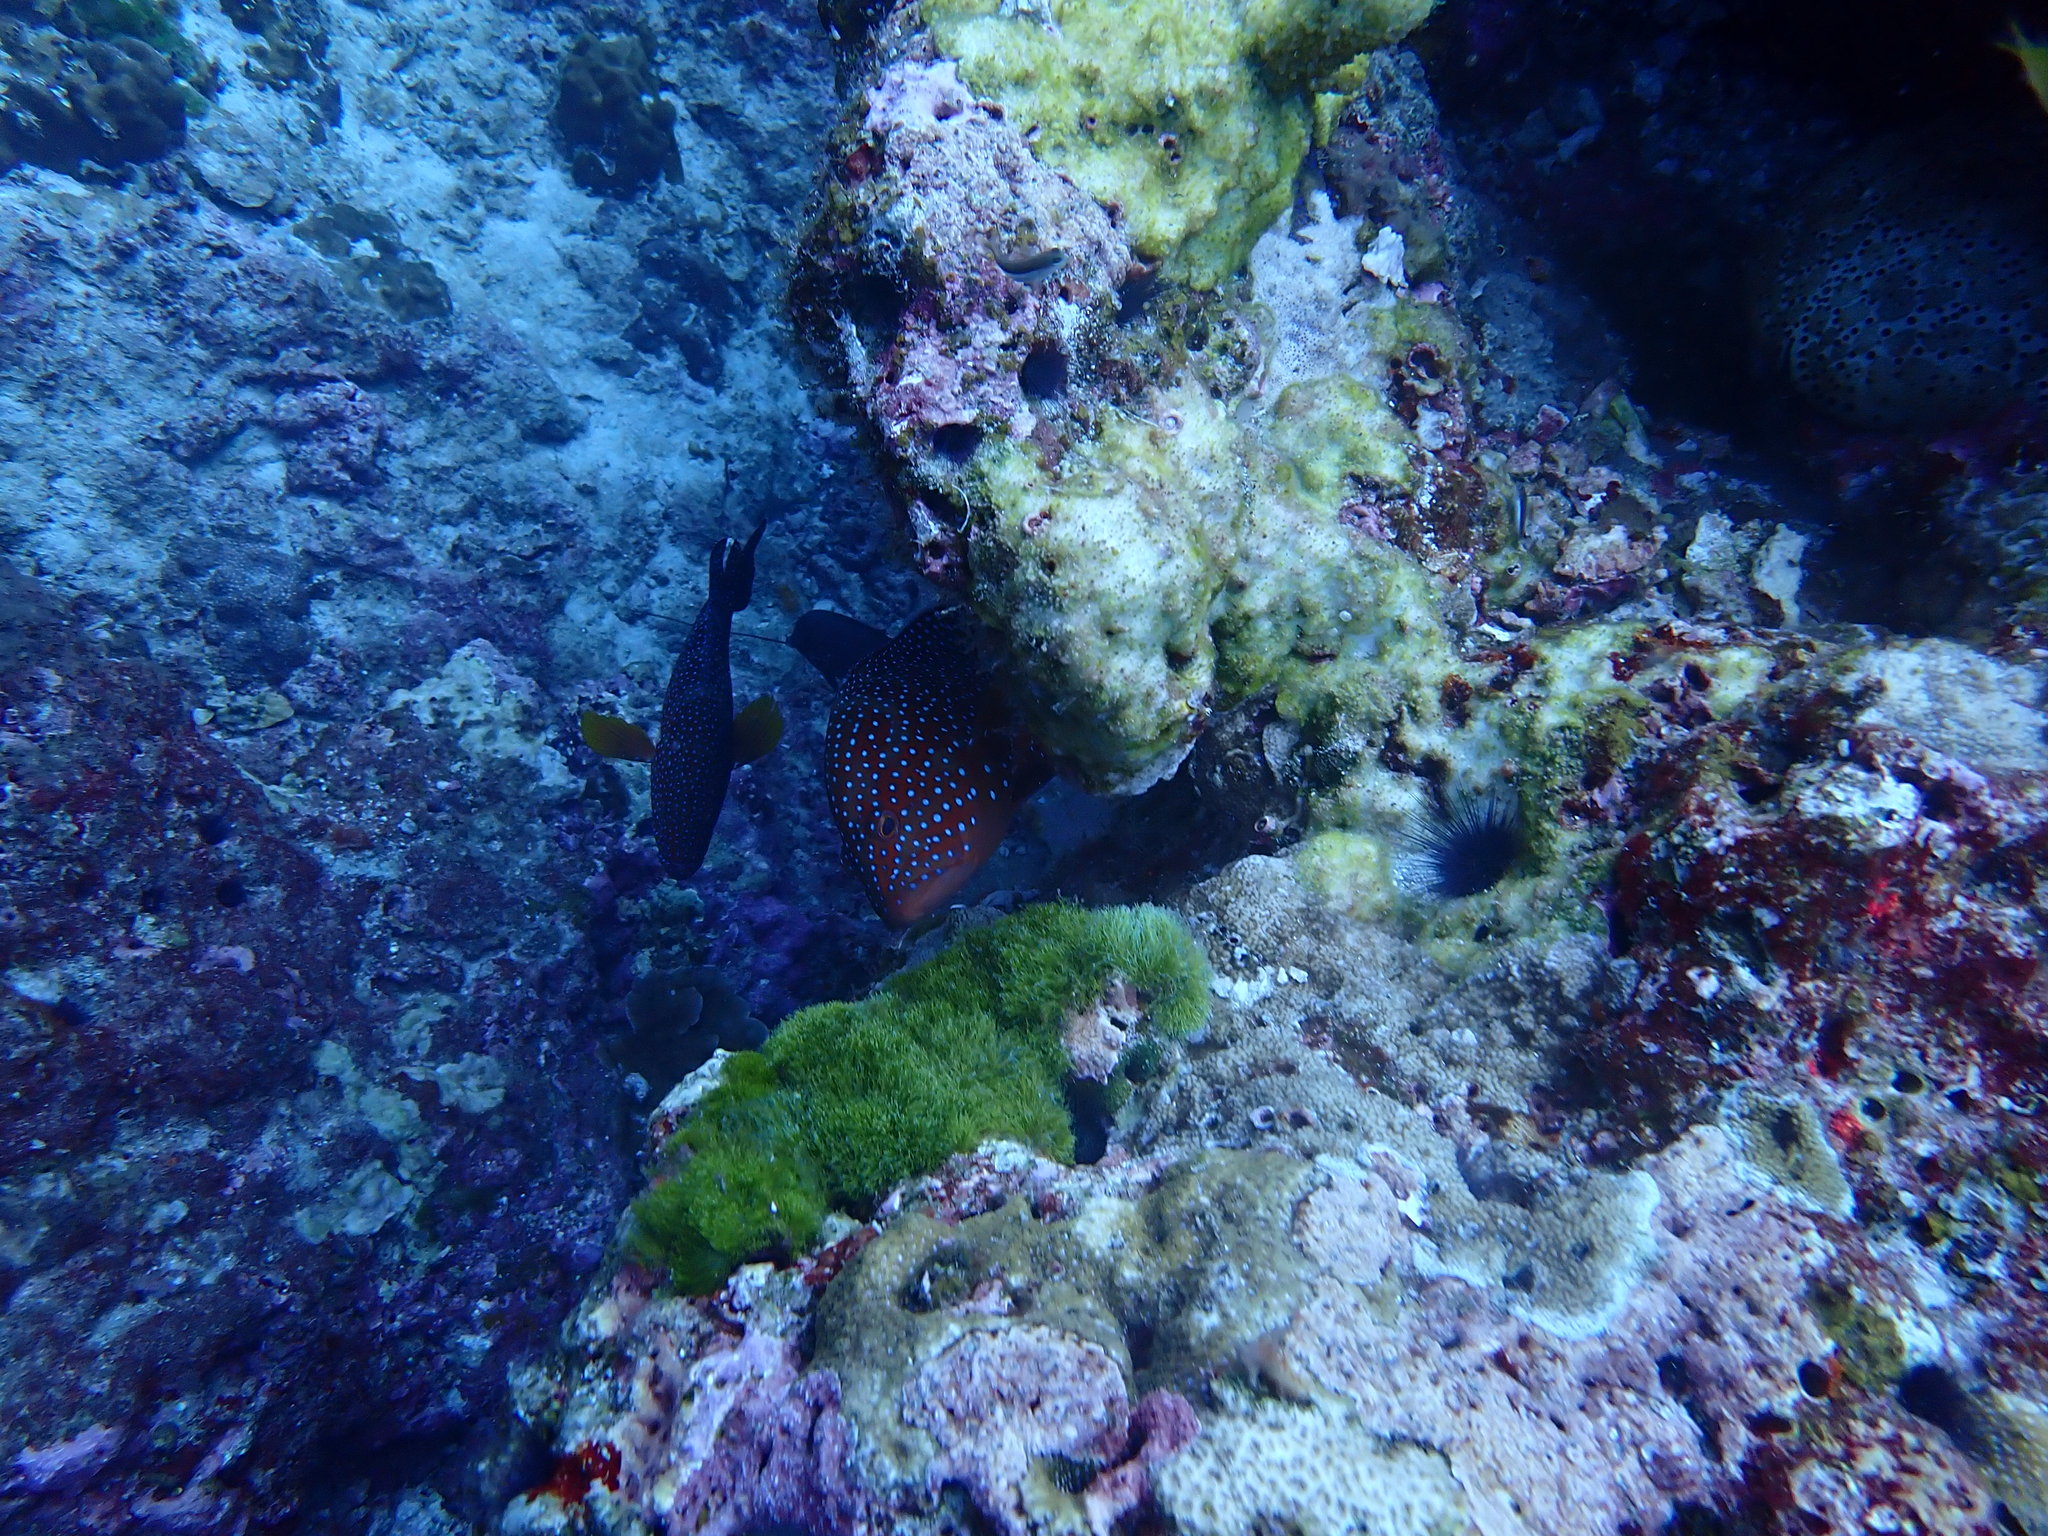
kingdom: Animalia
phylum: Chordata
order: Perciformes
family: Serranidae
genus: Cephalopholis
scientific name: Cephalopholis miniata
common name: Coral hind
